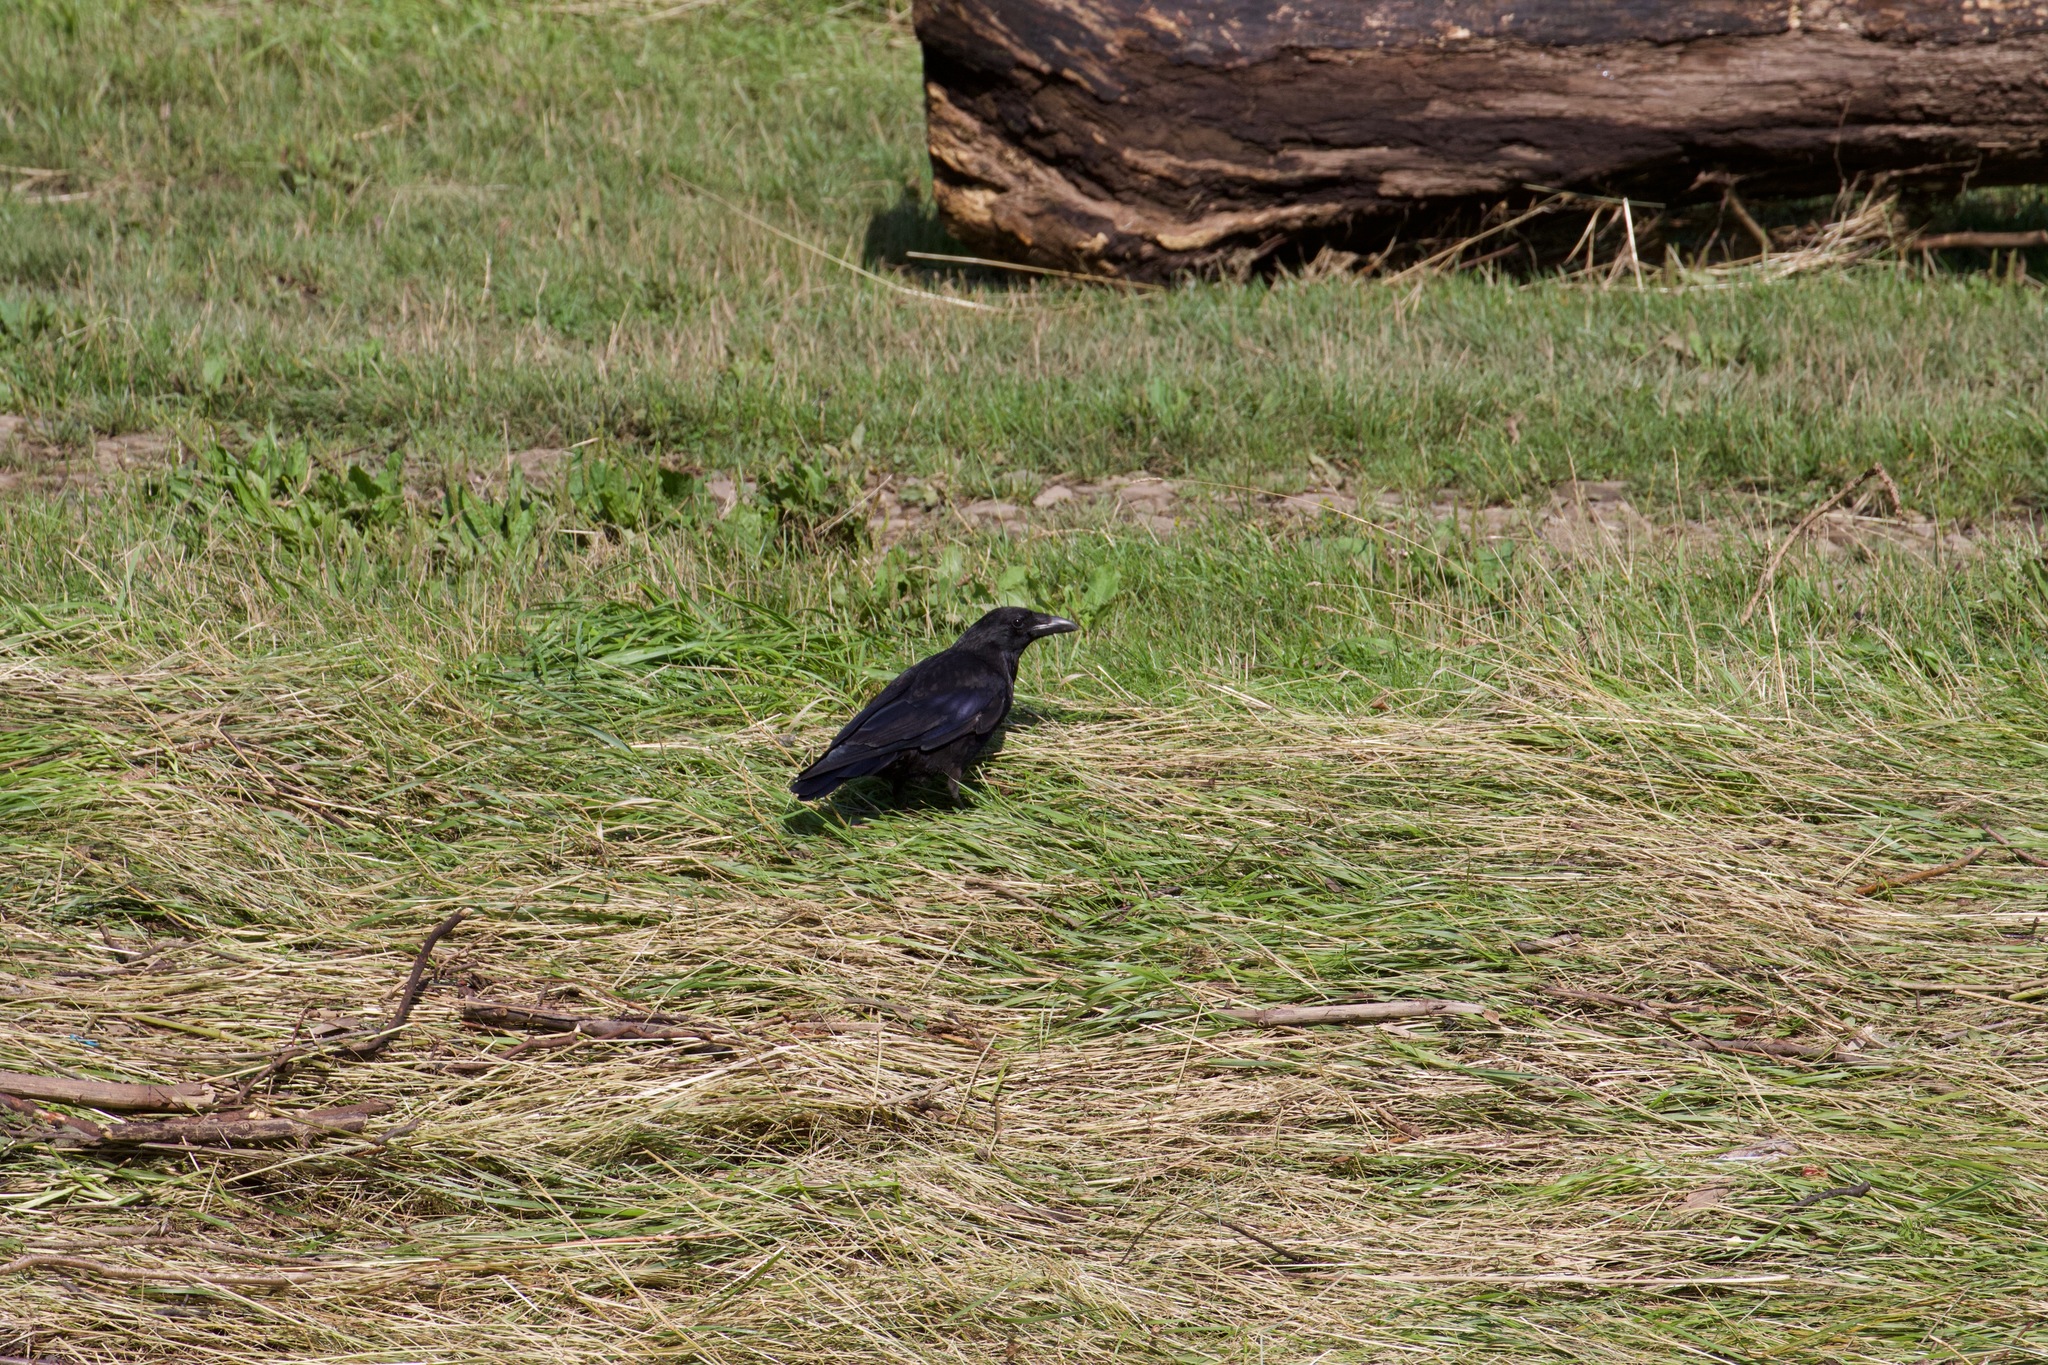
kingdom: Animalia
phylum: Chordata
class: Aves
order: Passeriformes
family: Corvidae
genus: Corvus
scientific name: Corvus corone
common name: Carrion crow
